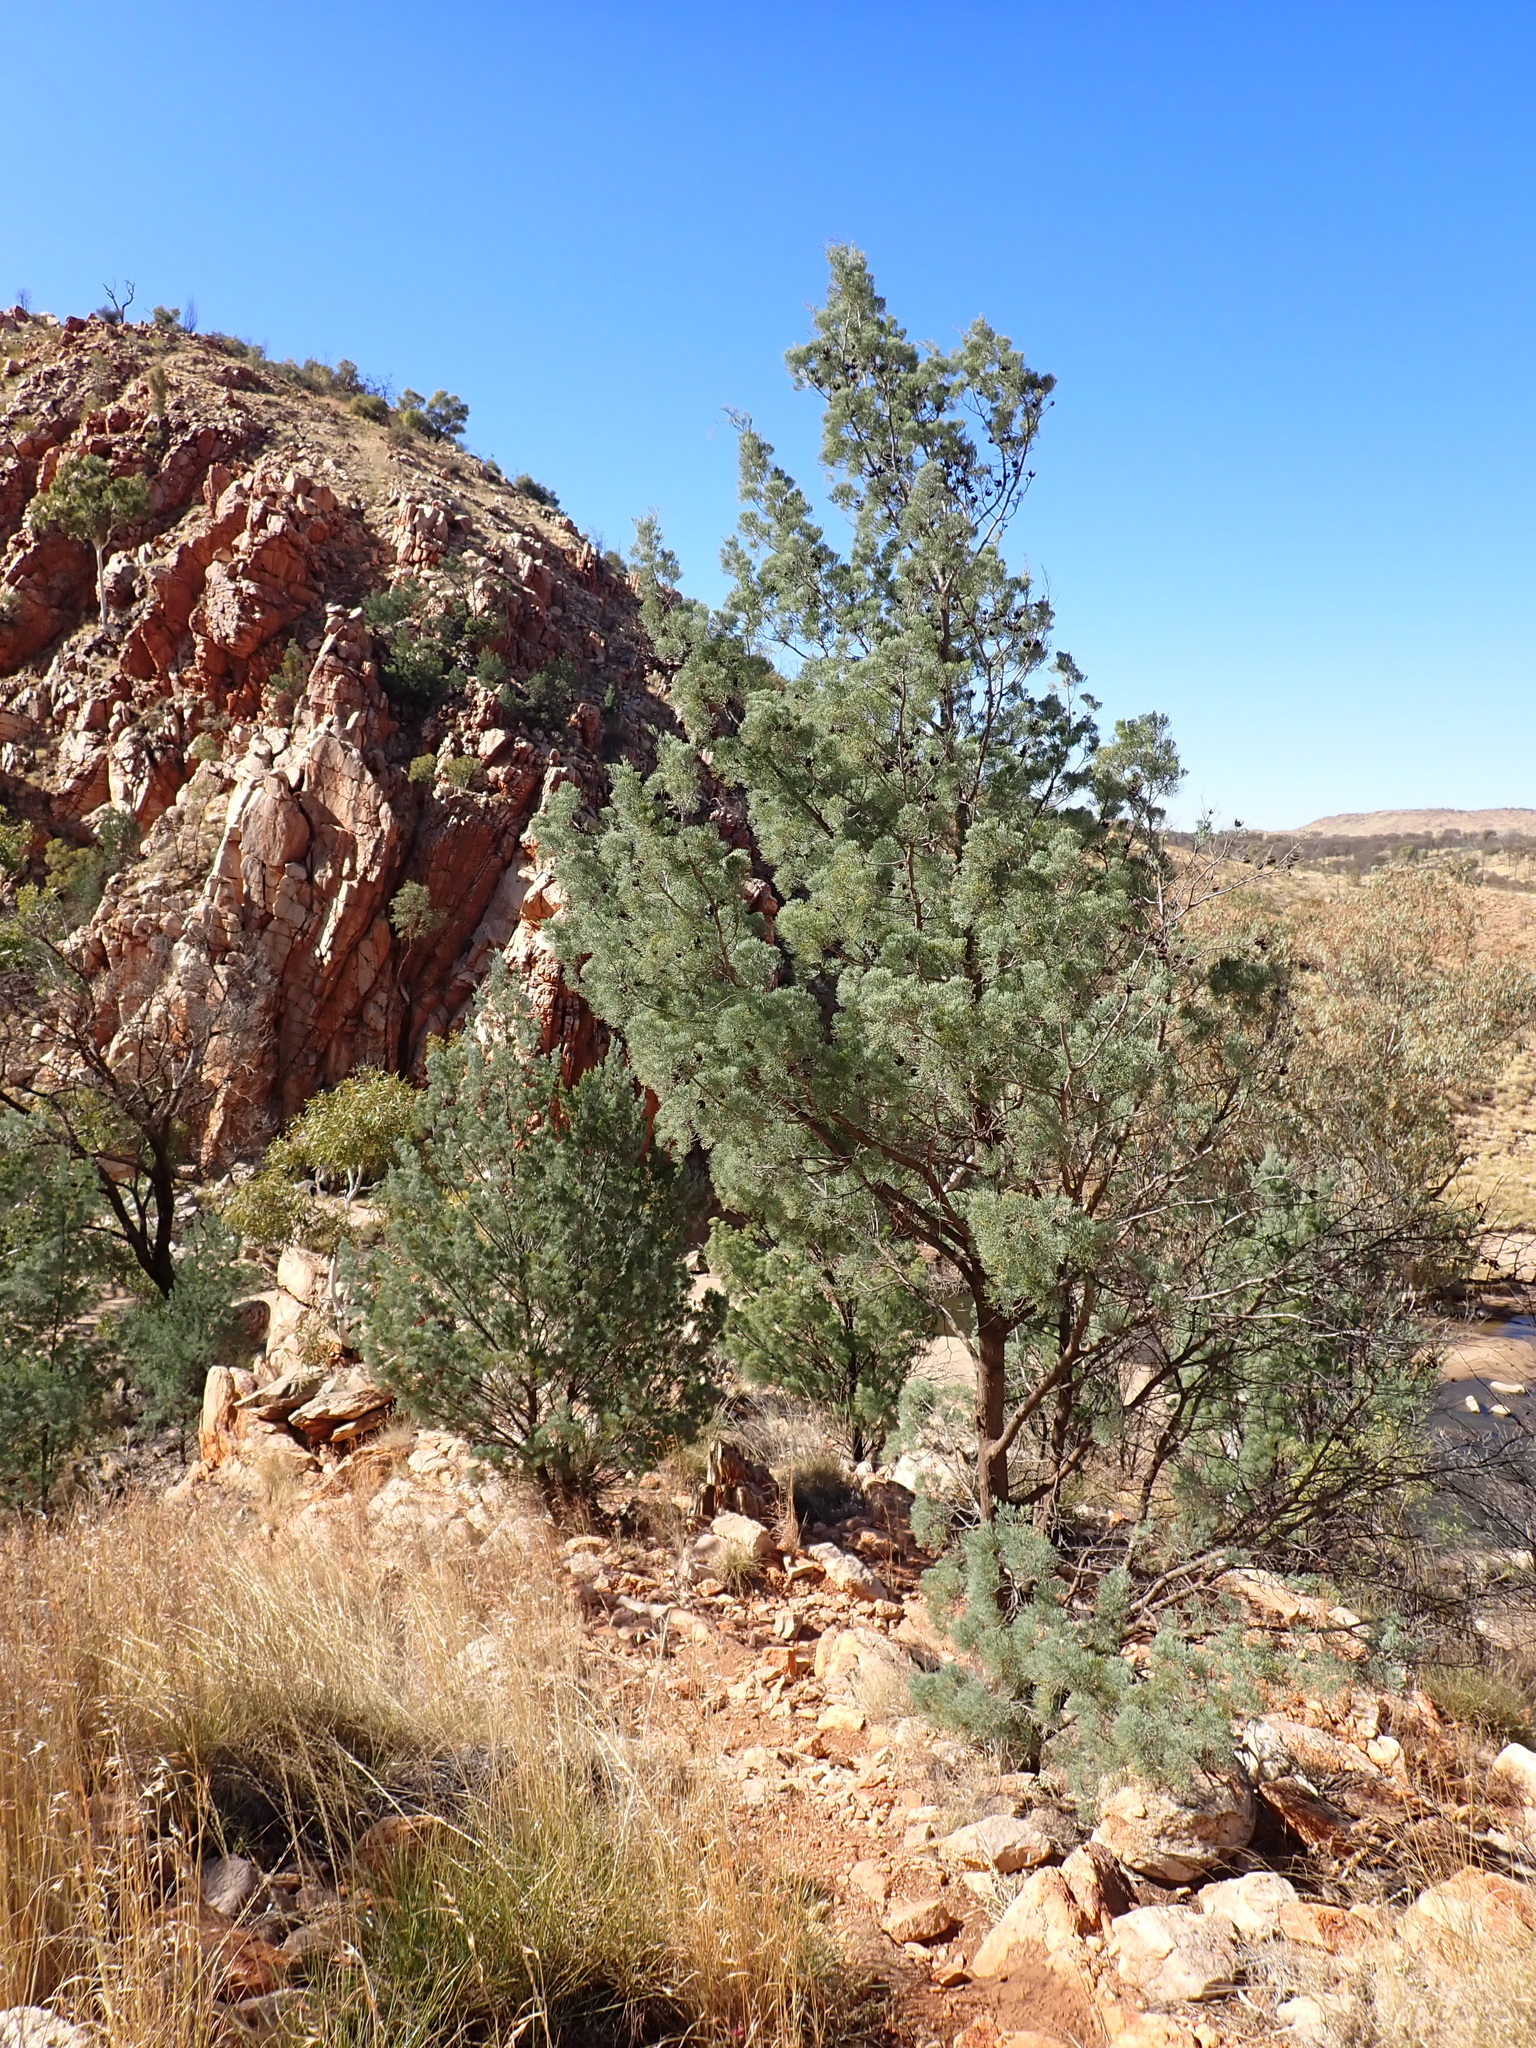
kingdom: Plantae
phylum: Tracheophyta
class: Pinopsida
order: Pinales
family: Cupressaceae
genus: Callitris
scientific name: Callitris columellaris
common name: White cypress-pine
